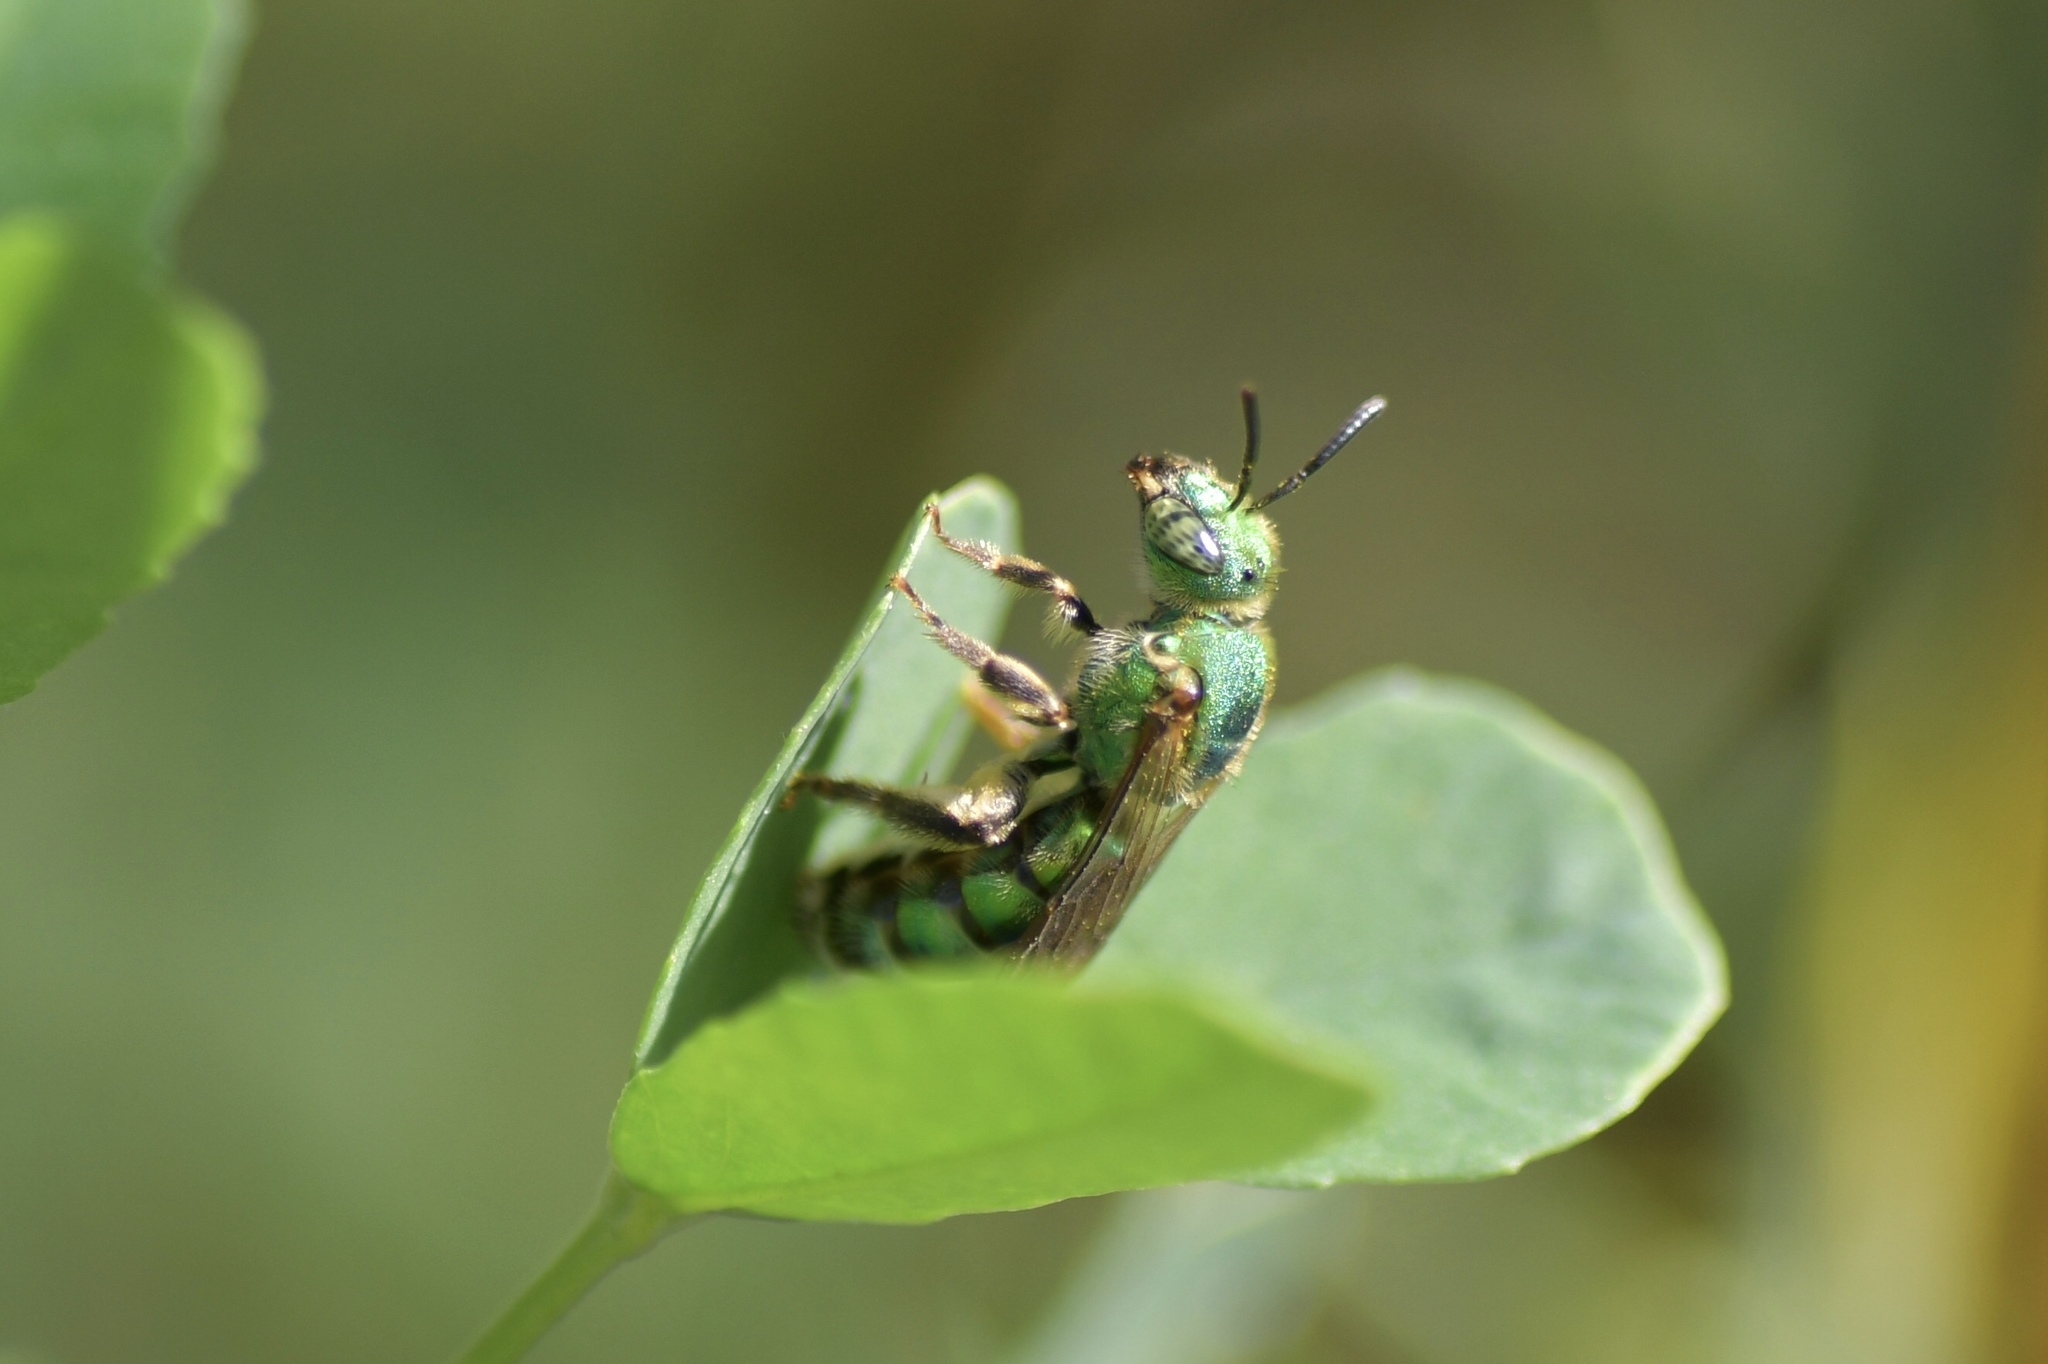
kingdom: Animalia
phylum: Arthropoda
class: Insecta
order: Hymenoptera
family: Halictidae
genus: Agapostemon
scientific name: Agapostemon sericeus
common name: Silky striped sweat bee
